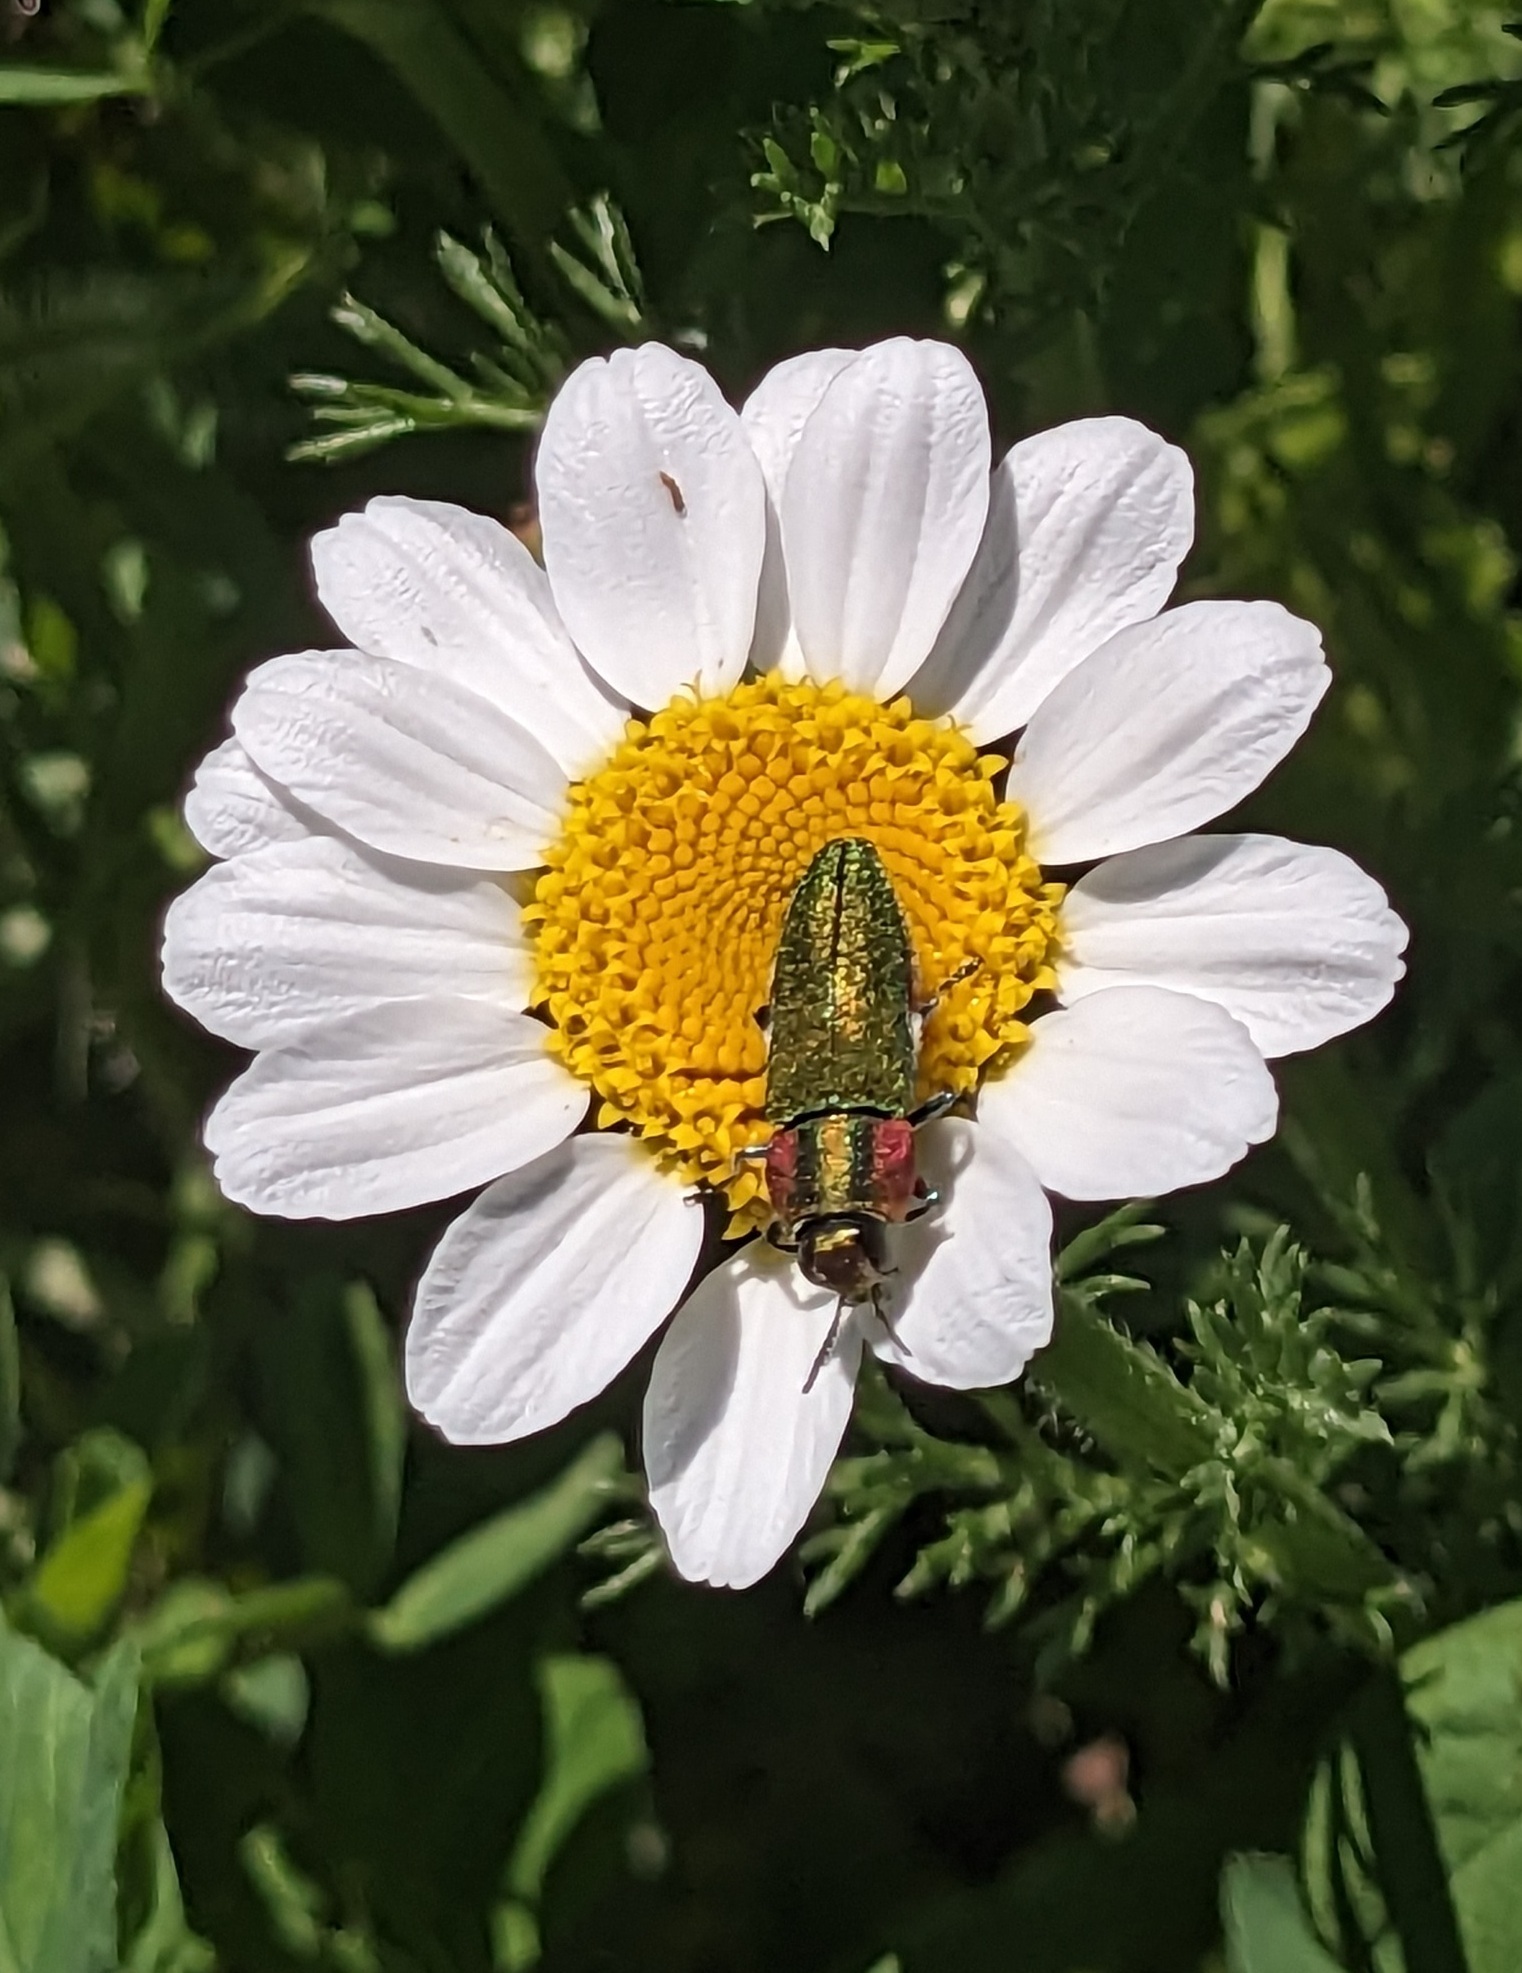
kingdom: Animalia
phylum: Arthropoda
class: Insecta
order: Coleoptera
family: Buprestidae
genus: Anthaxia
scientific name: Anthaxia hungarica
